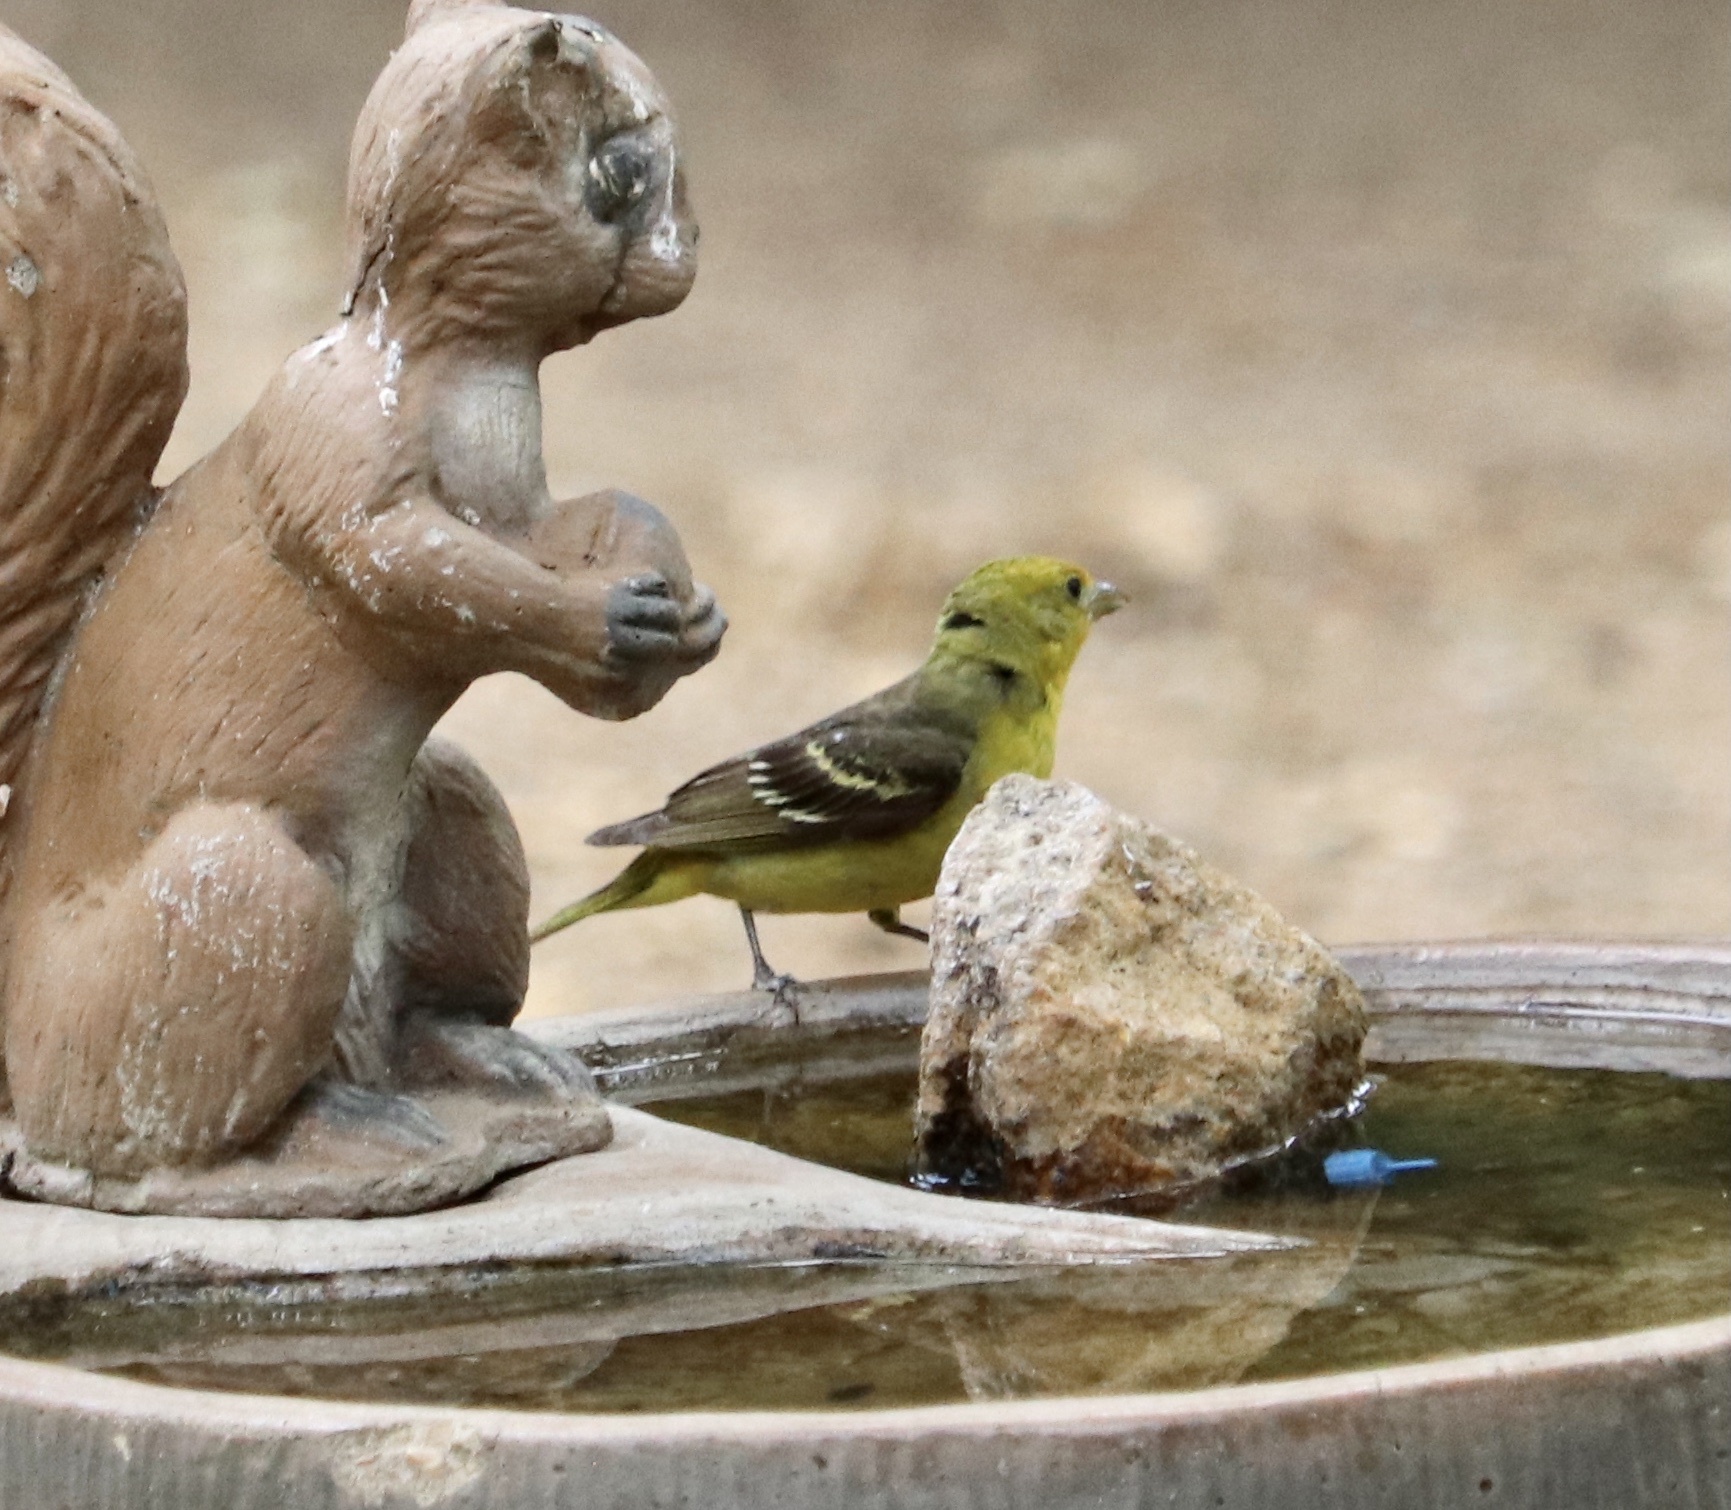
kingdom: Animalia
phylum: Chordata
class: Aves
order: Passeriformes
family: Cardinalidae
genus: Piranga
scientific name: Piranga ludoviciana
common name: Western tanager
